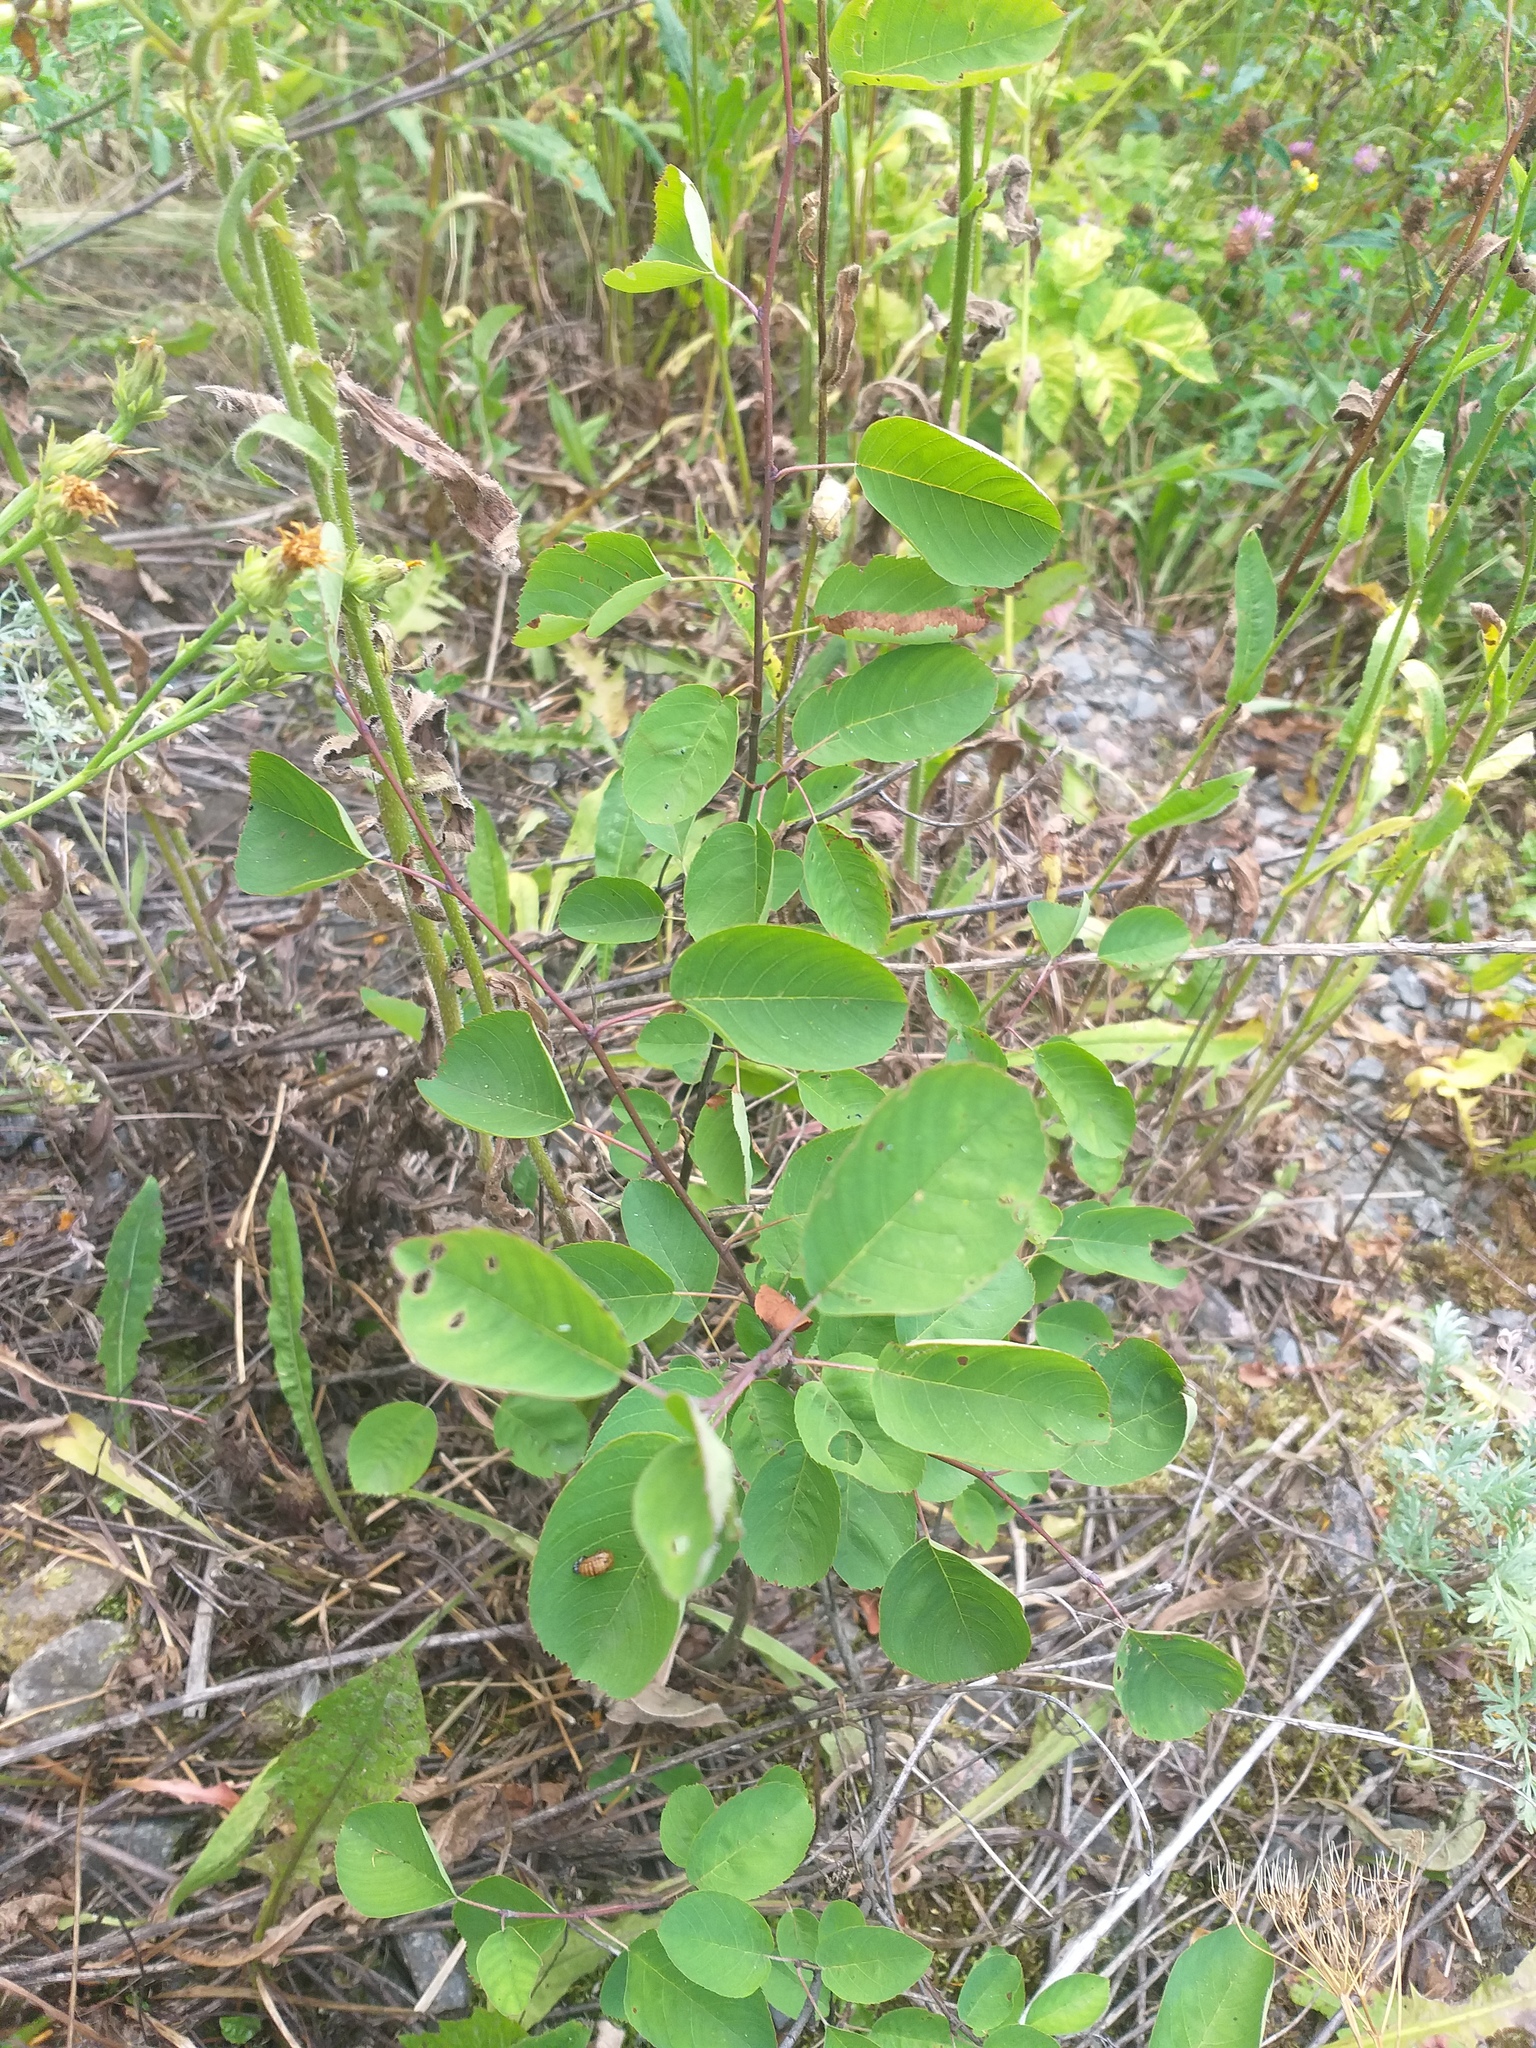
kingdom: Plantae
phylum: Tracheophyta
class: Magnoliopsida
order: Rosales
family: Rosaceae
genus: Amelanchier
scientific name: Amelanchier
